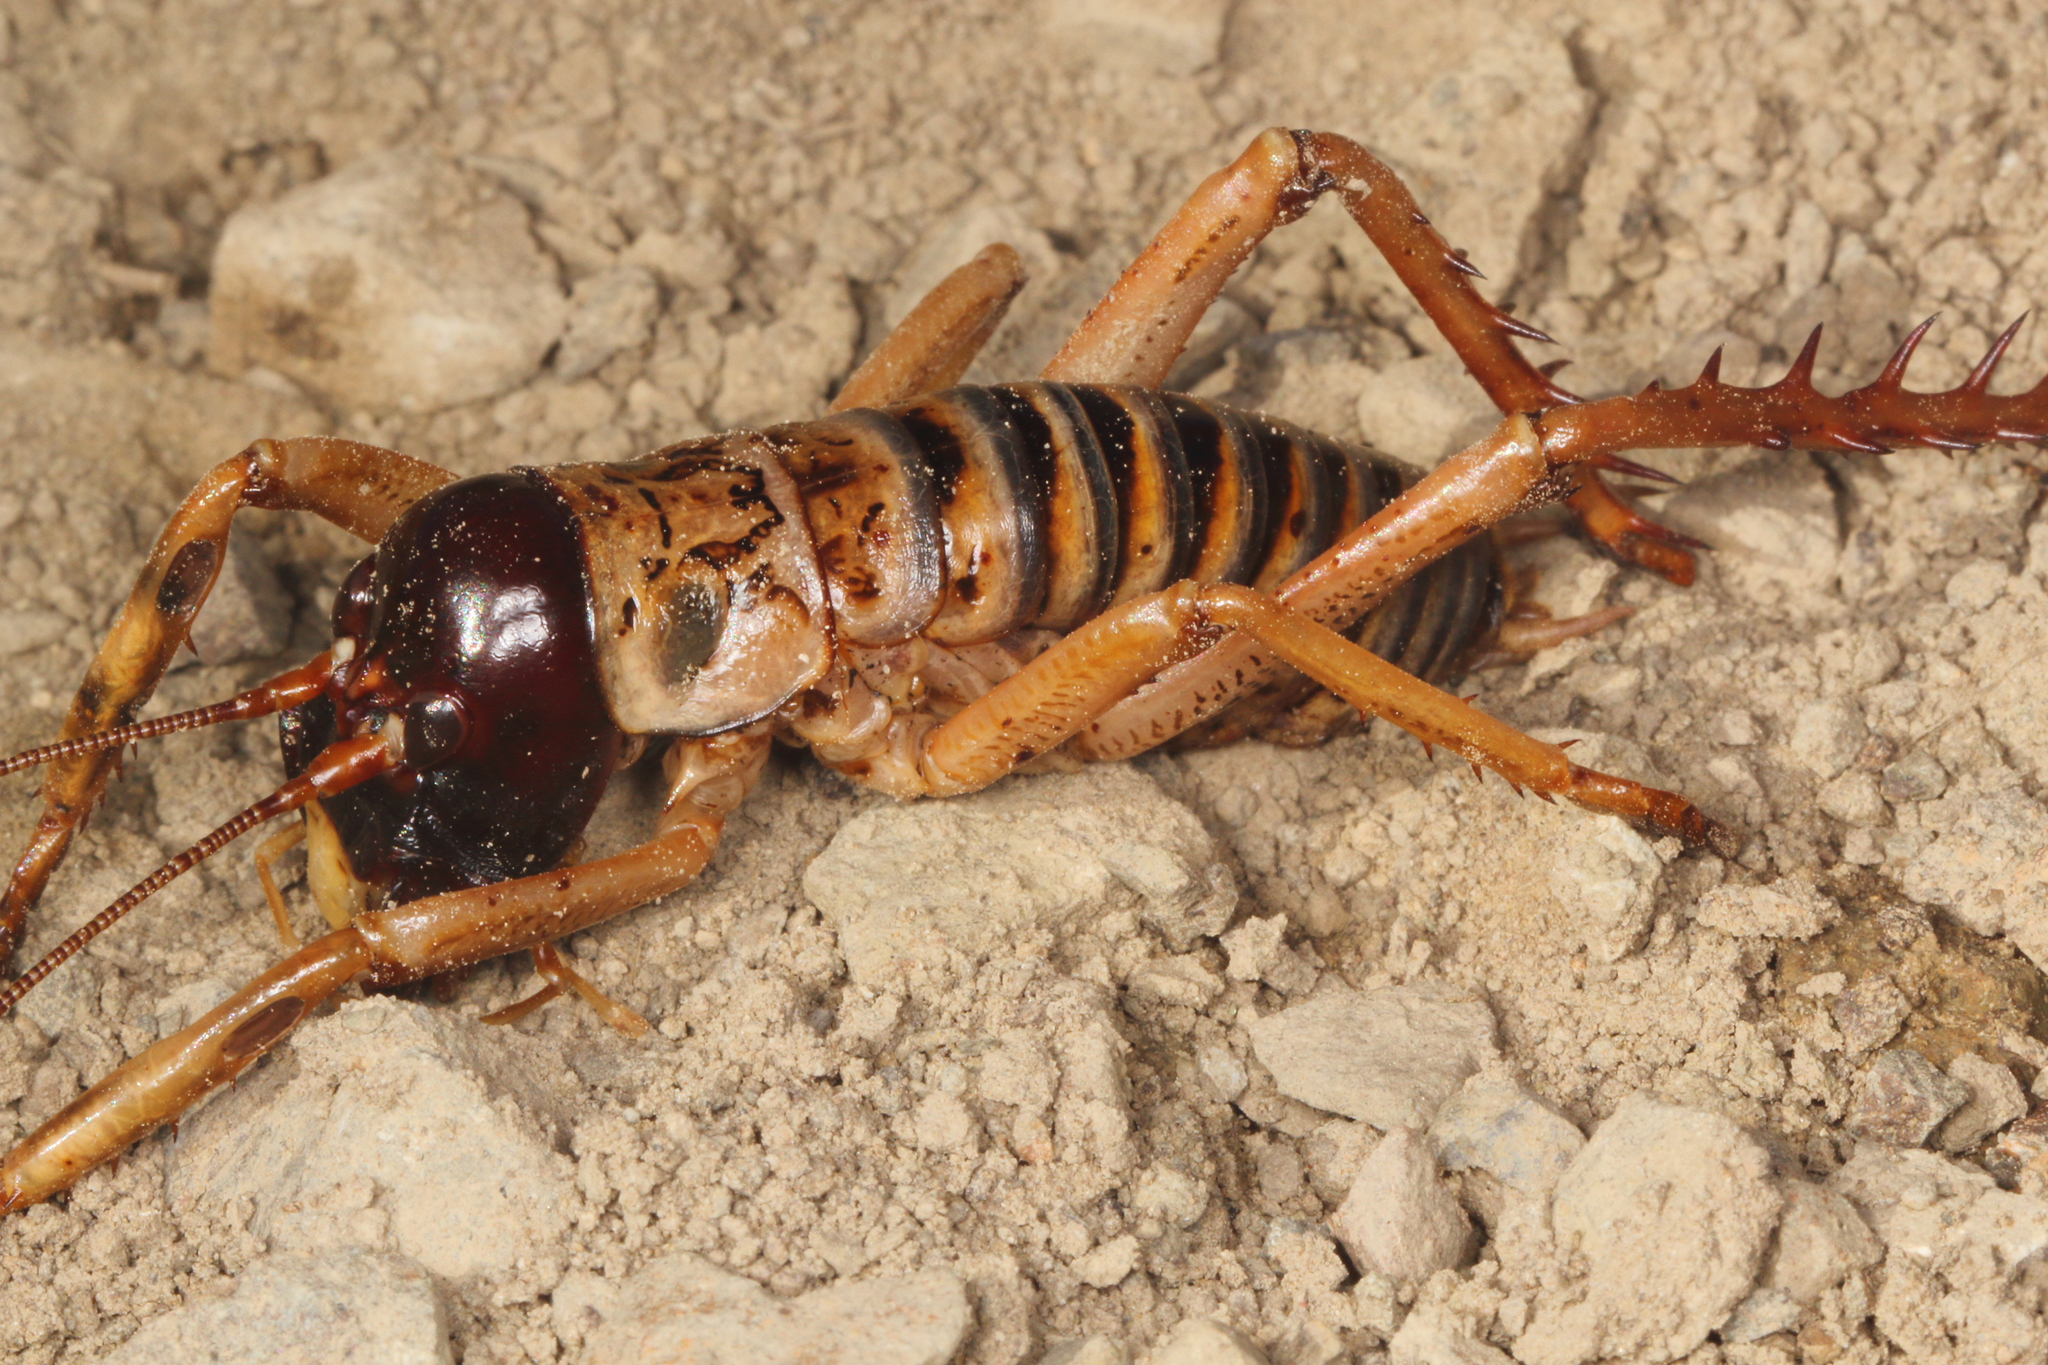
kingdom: Animalia
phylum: Arthropoda
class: Insecta
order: Orthoptera
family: Anostostomatidae
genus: Hemideina
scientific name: Hemideina femorata
